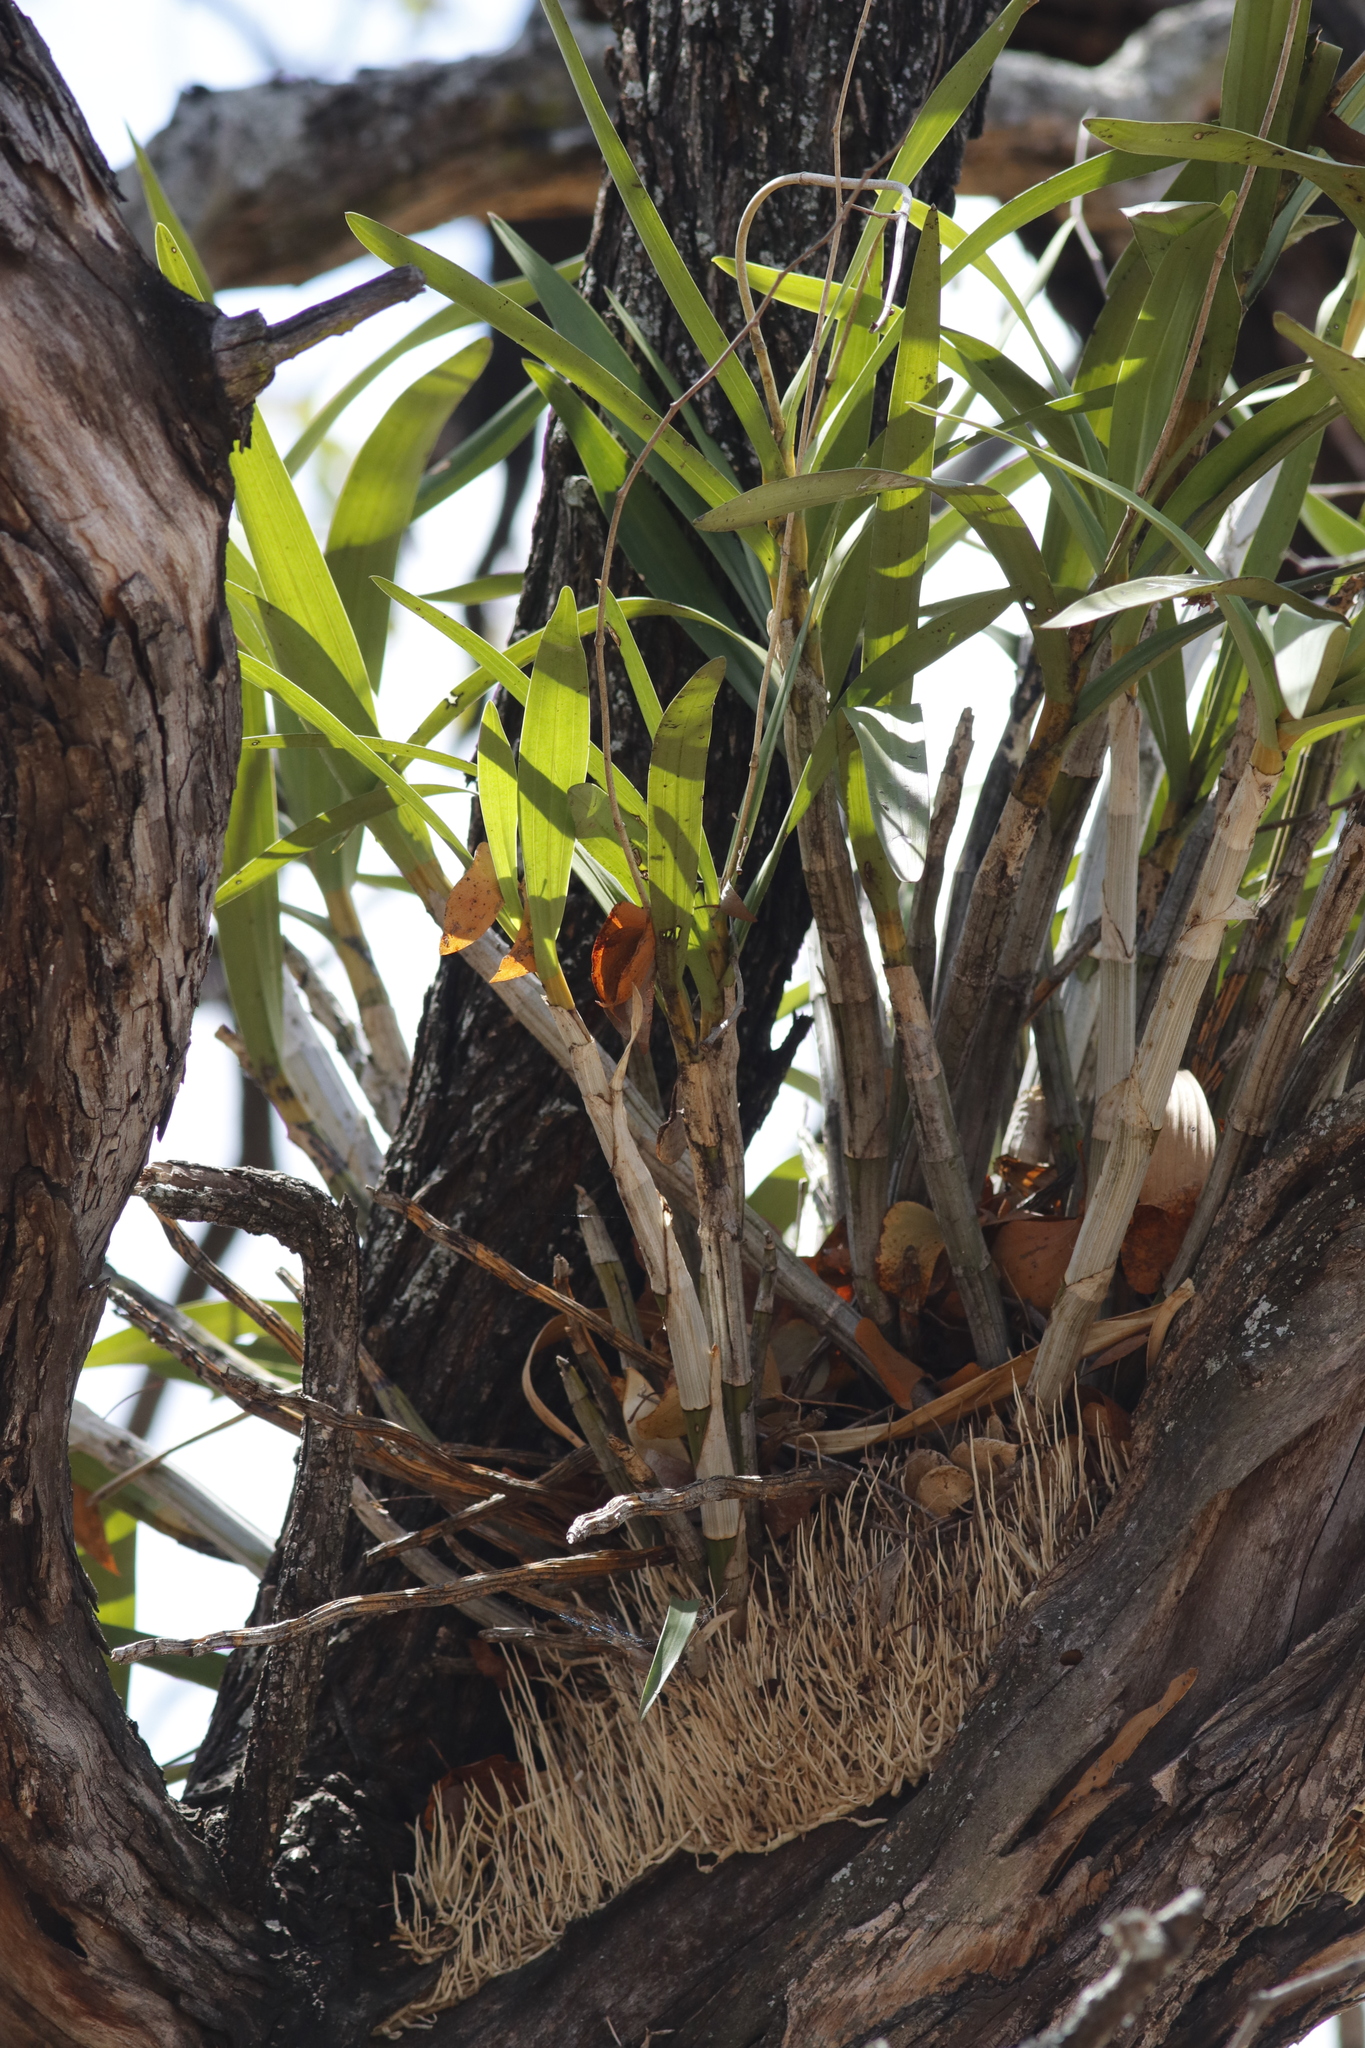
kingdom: Plantae
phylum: Tracheophyta
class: Liliopsida
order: Asparagales
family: Orchidaceae
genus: Ansellia
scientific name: Ansellia africana
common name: African ansellia
